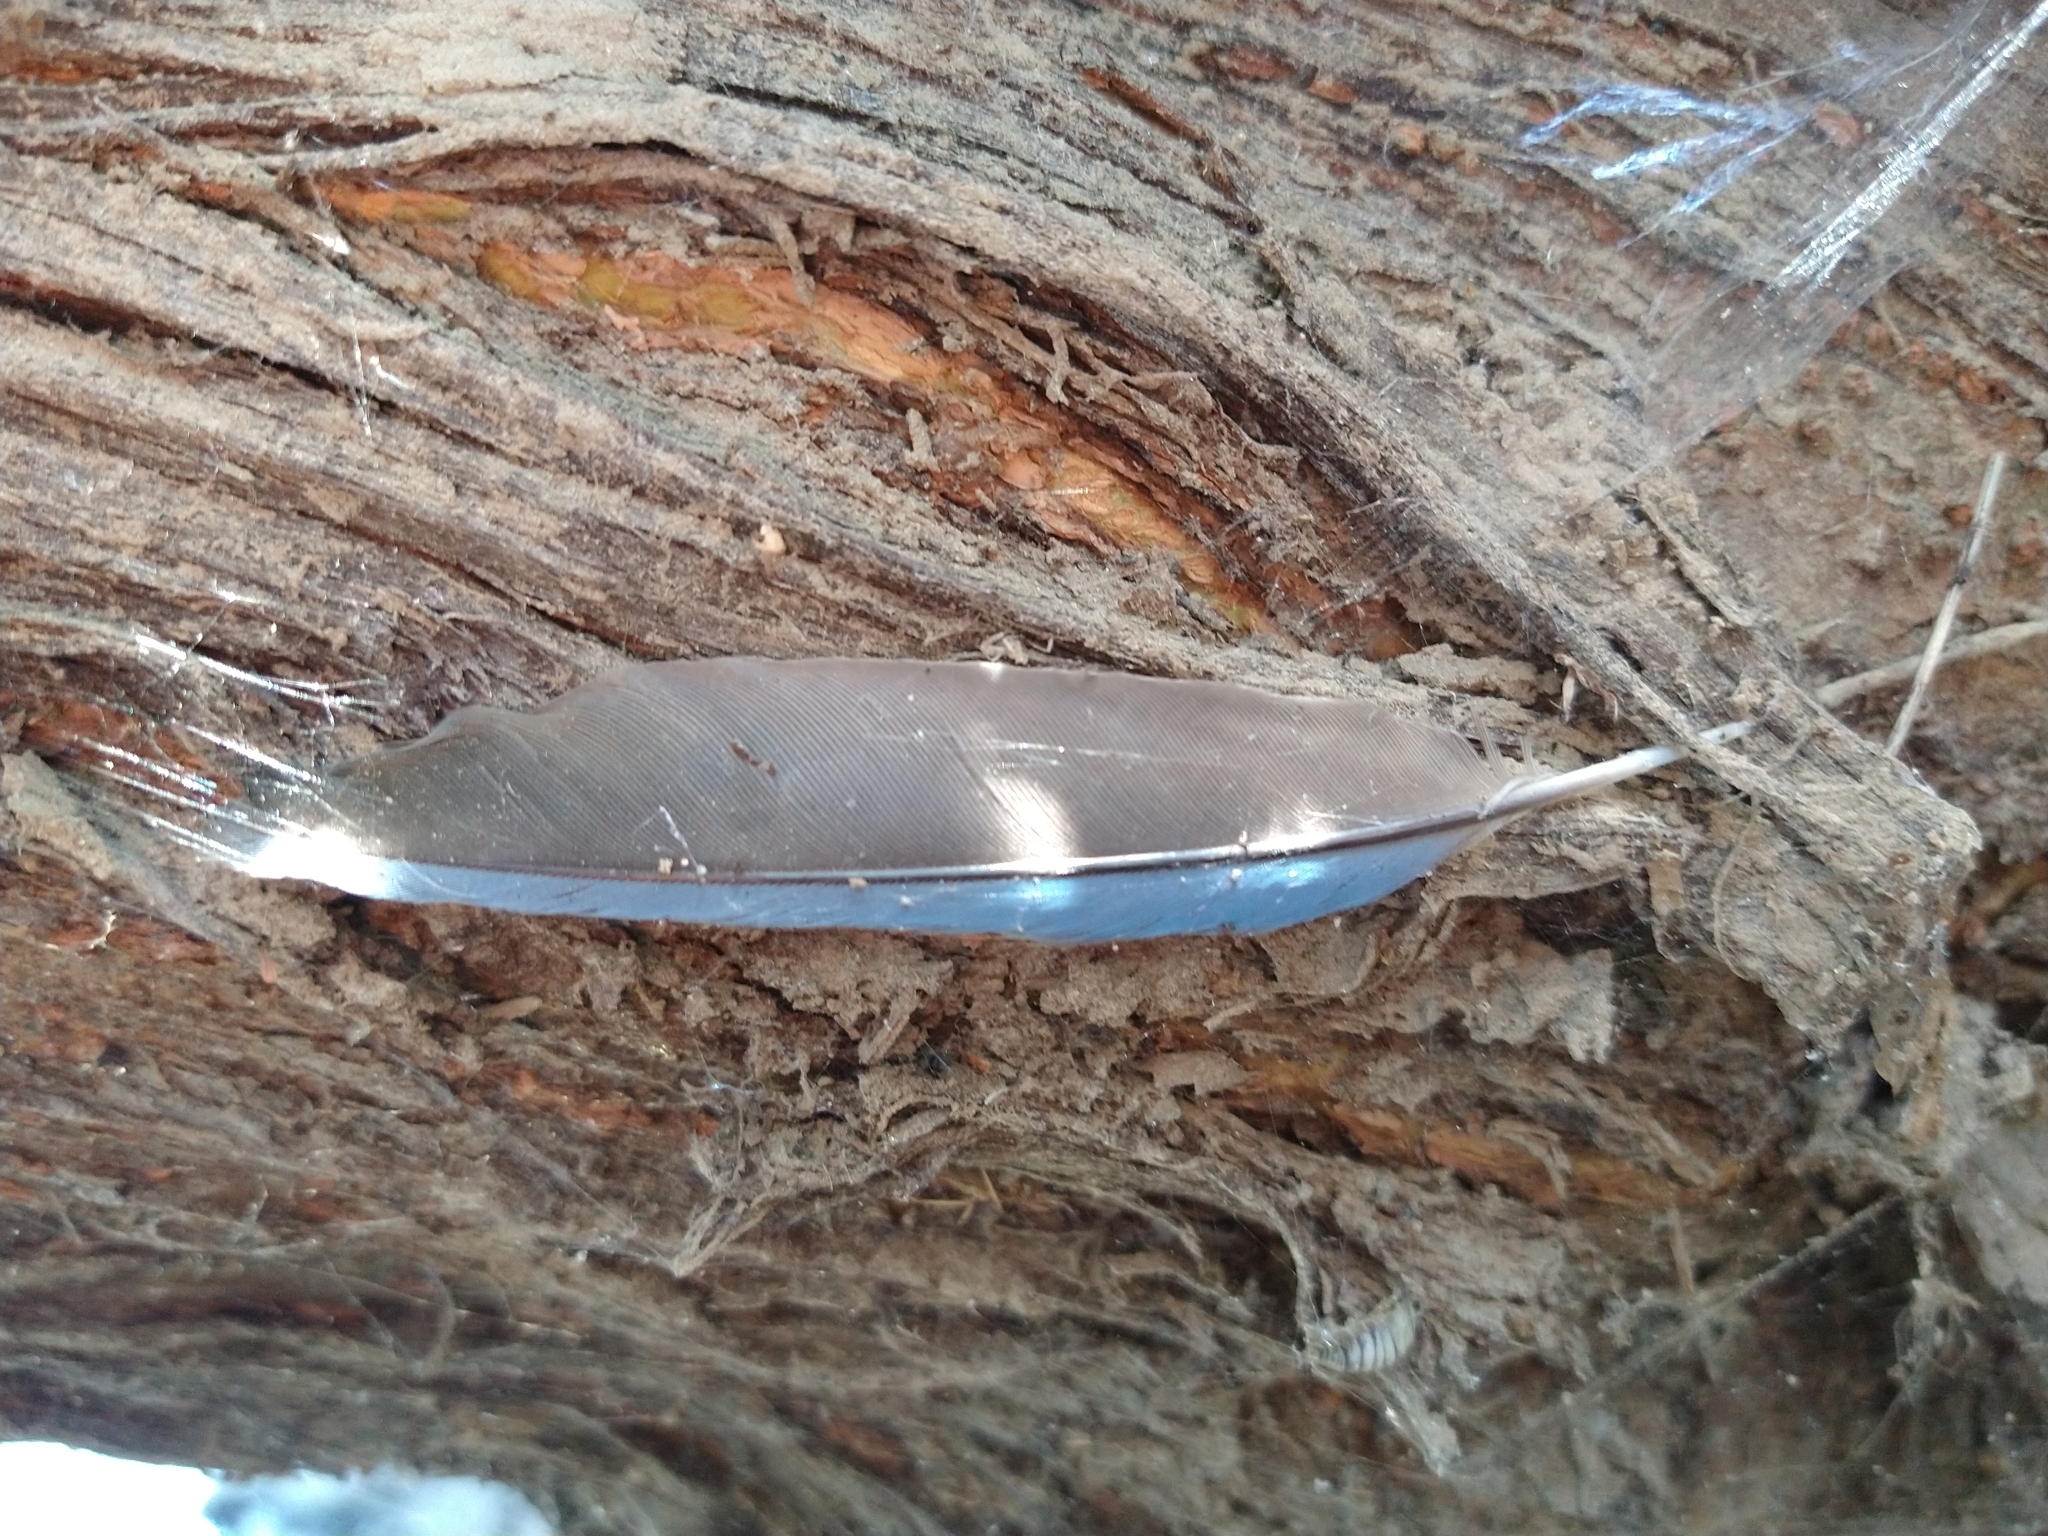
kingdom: Animalia
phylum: Chordata
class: Aves
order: Passeriformes
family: Corvidae
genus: Aphelocoma
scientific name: Aphelocoma californica
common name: California scrub-jay
